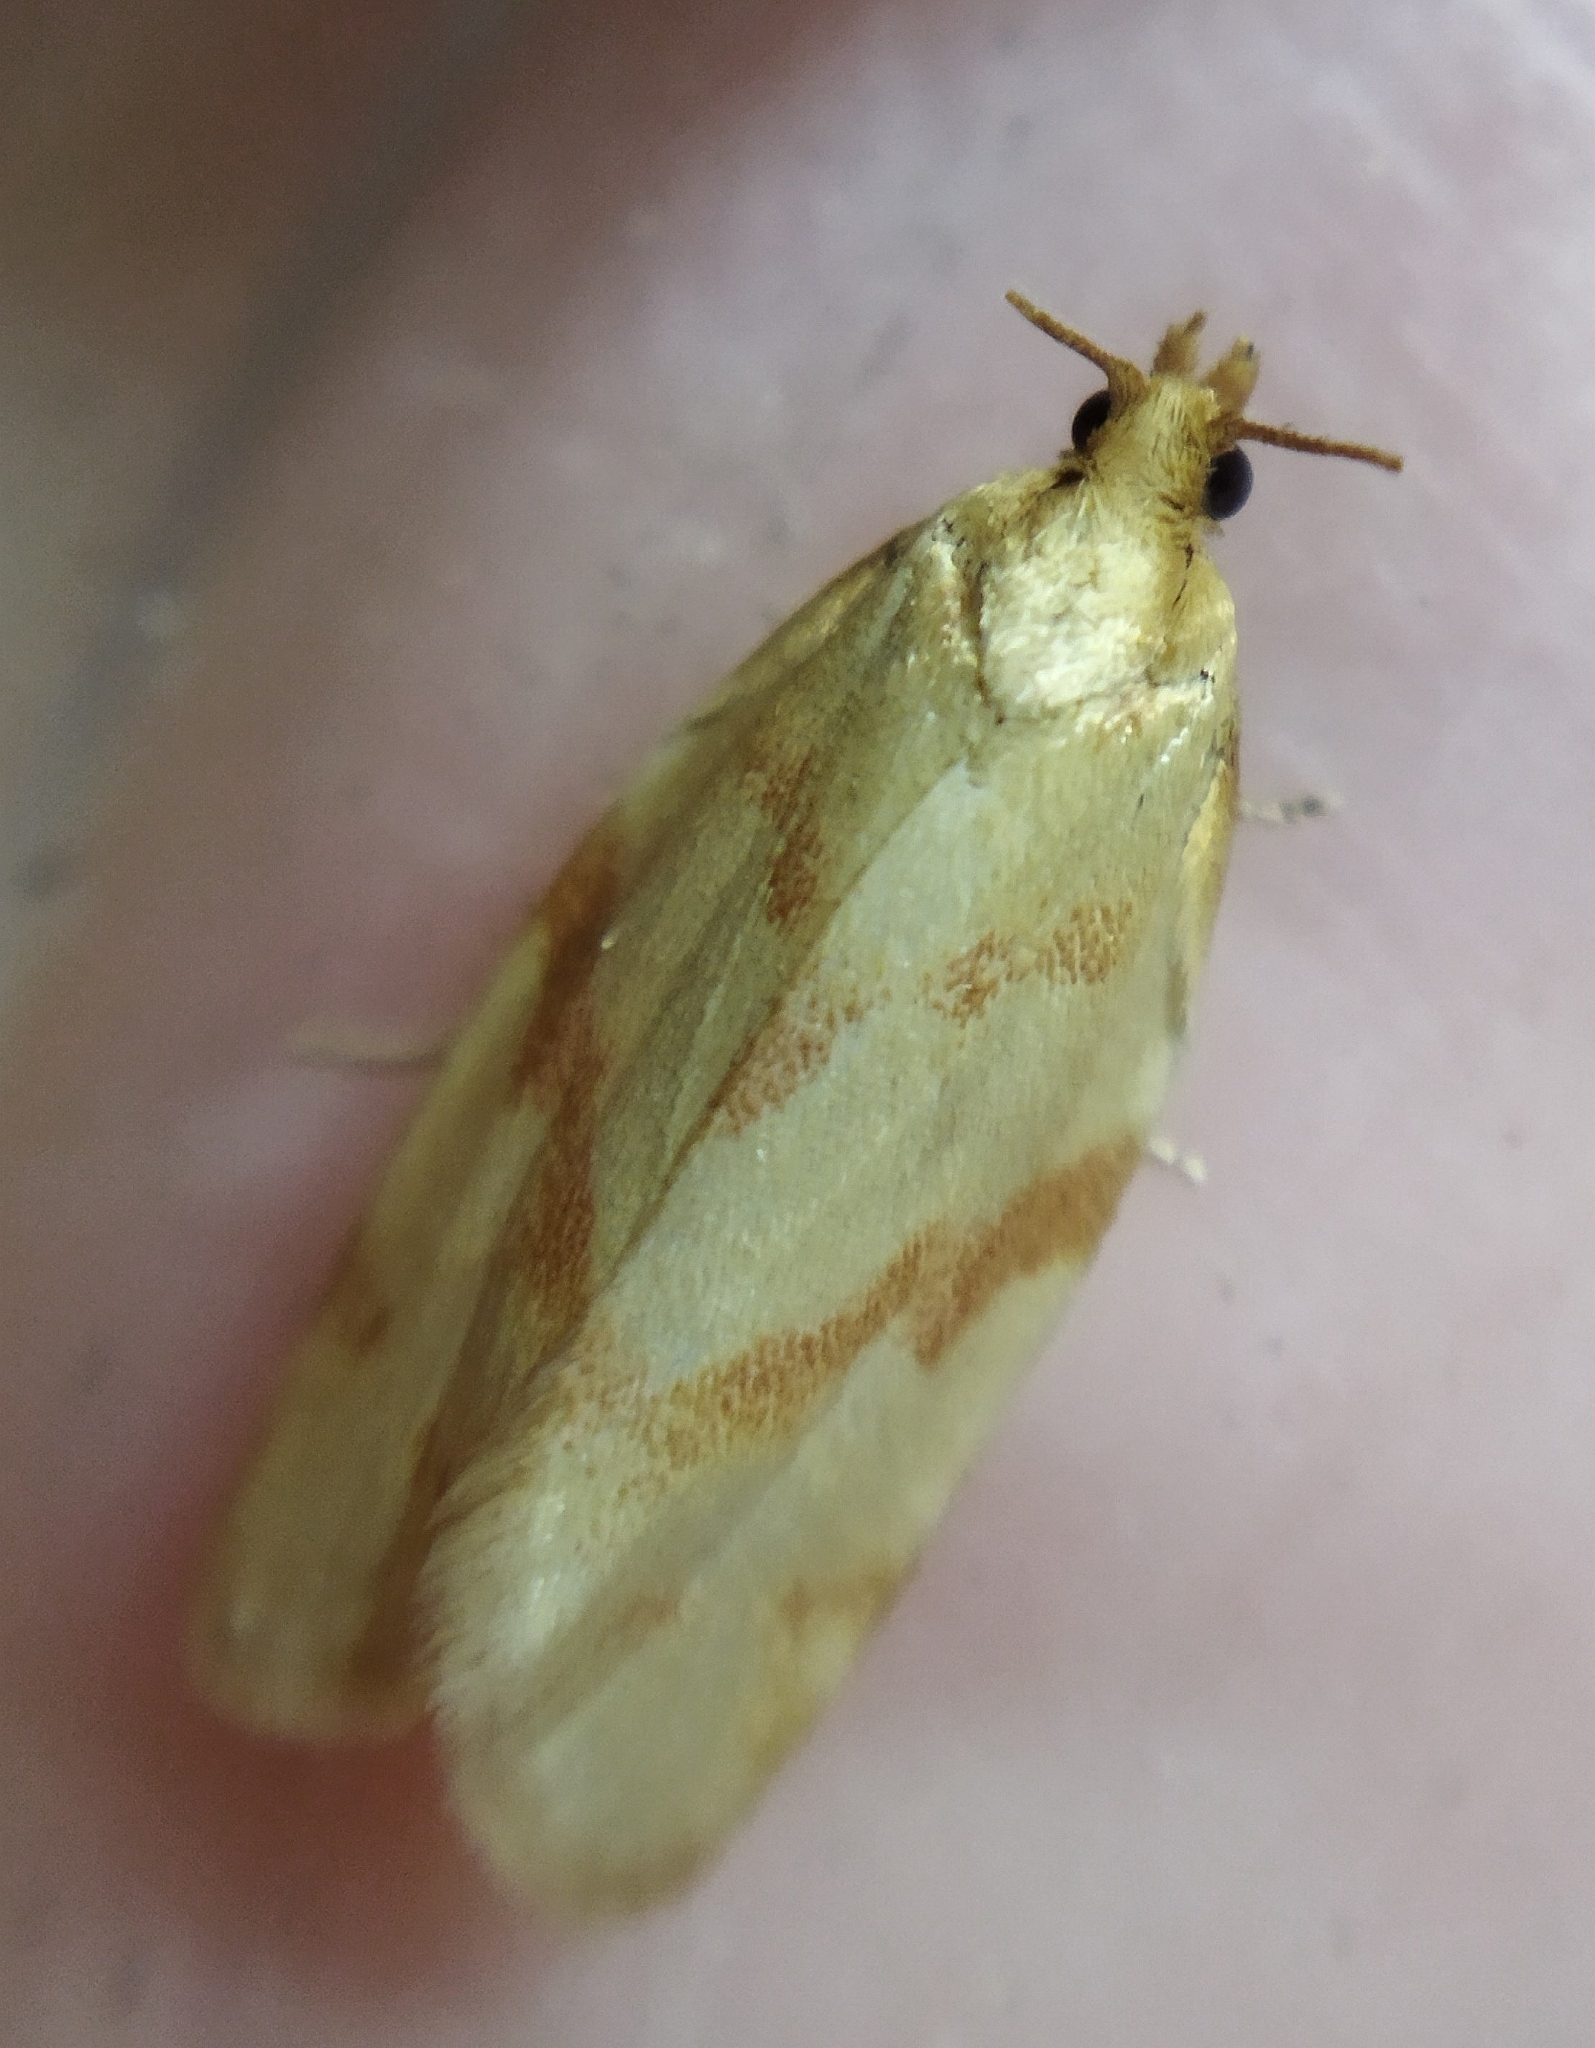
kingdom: Animalia
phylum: Arthropoda
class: Insecta
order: Lepidoptera
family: Tortricidae
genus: Clepsis
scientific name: Clepsis pallidana
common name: Sheep's-bit conch
